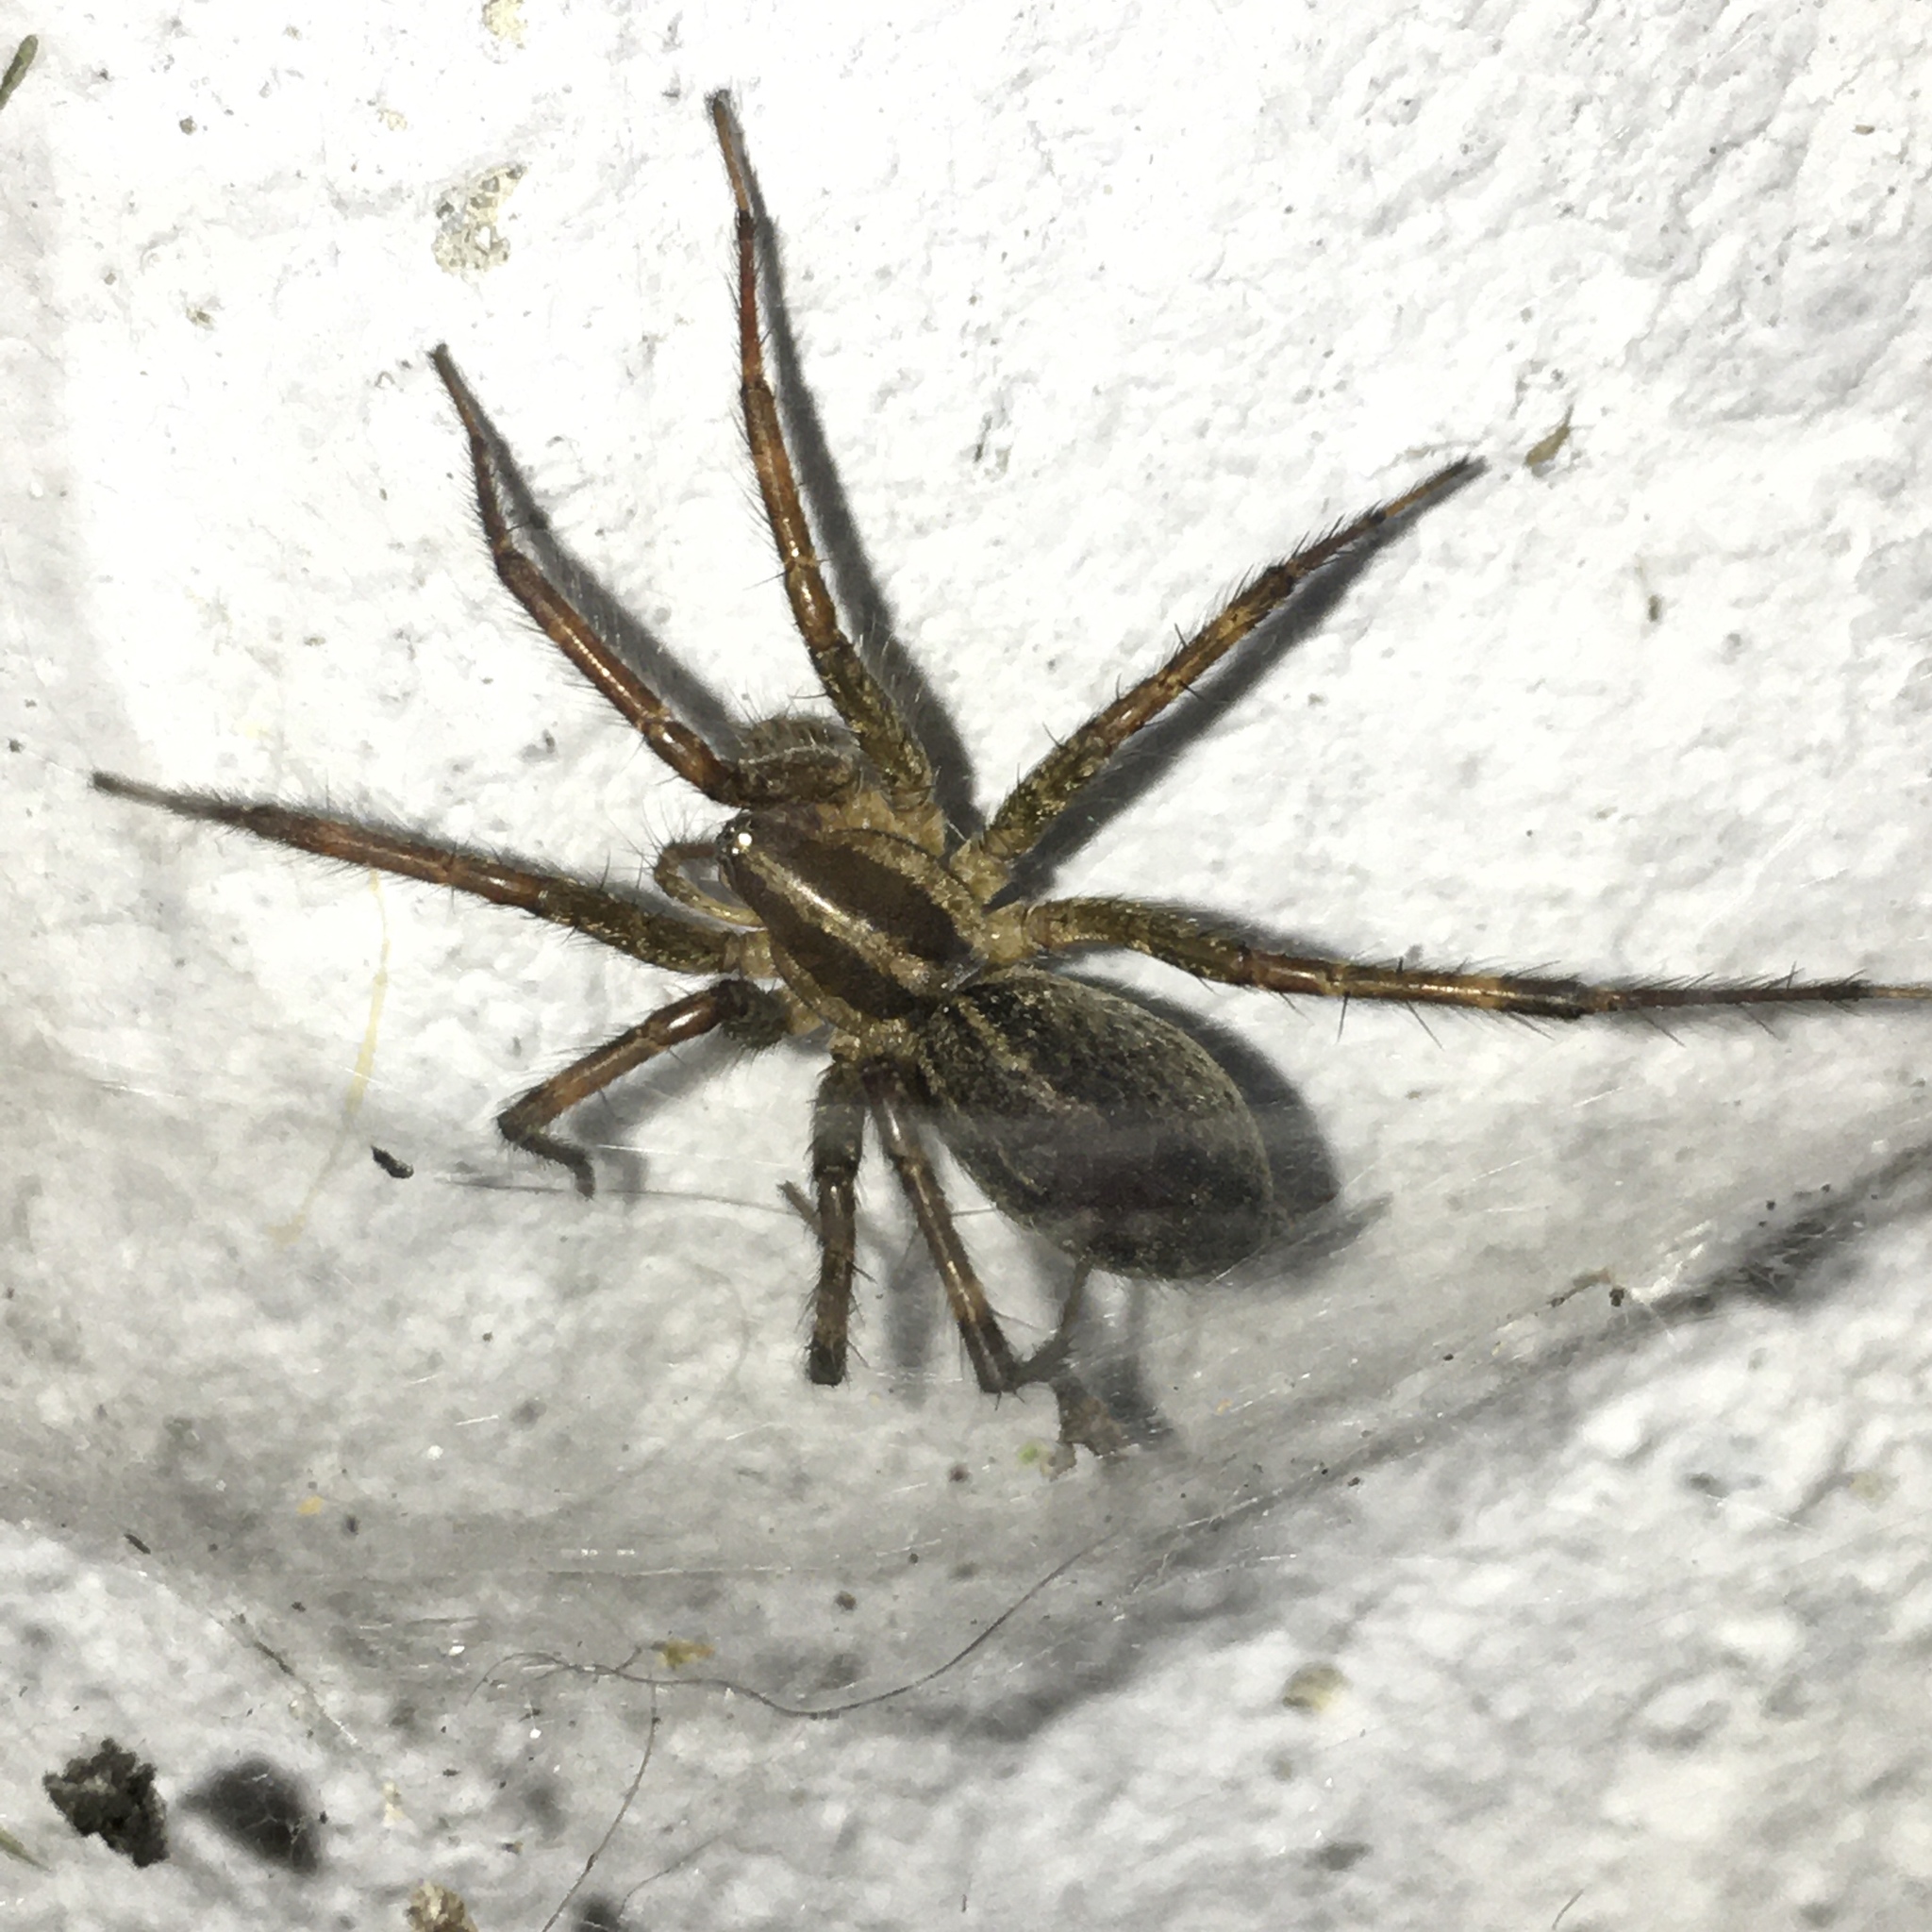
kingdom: Animalia
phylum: Arthropoda
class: Arachnida
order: Araneae
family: Agelenidae
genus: Agelenopsis
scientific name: Agelenopsis potteri
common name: Potter's grass spider
